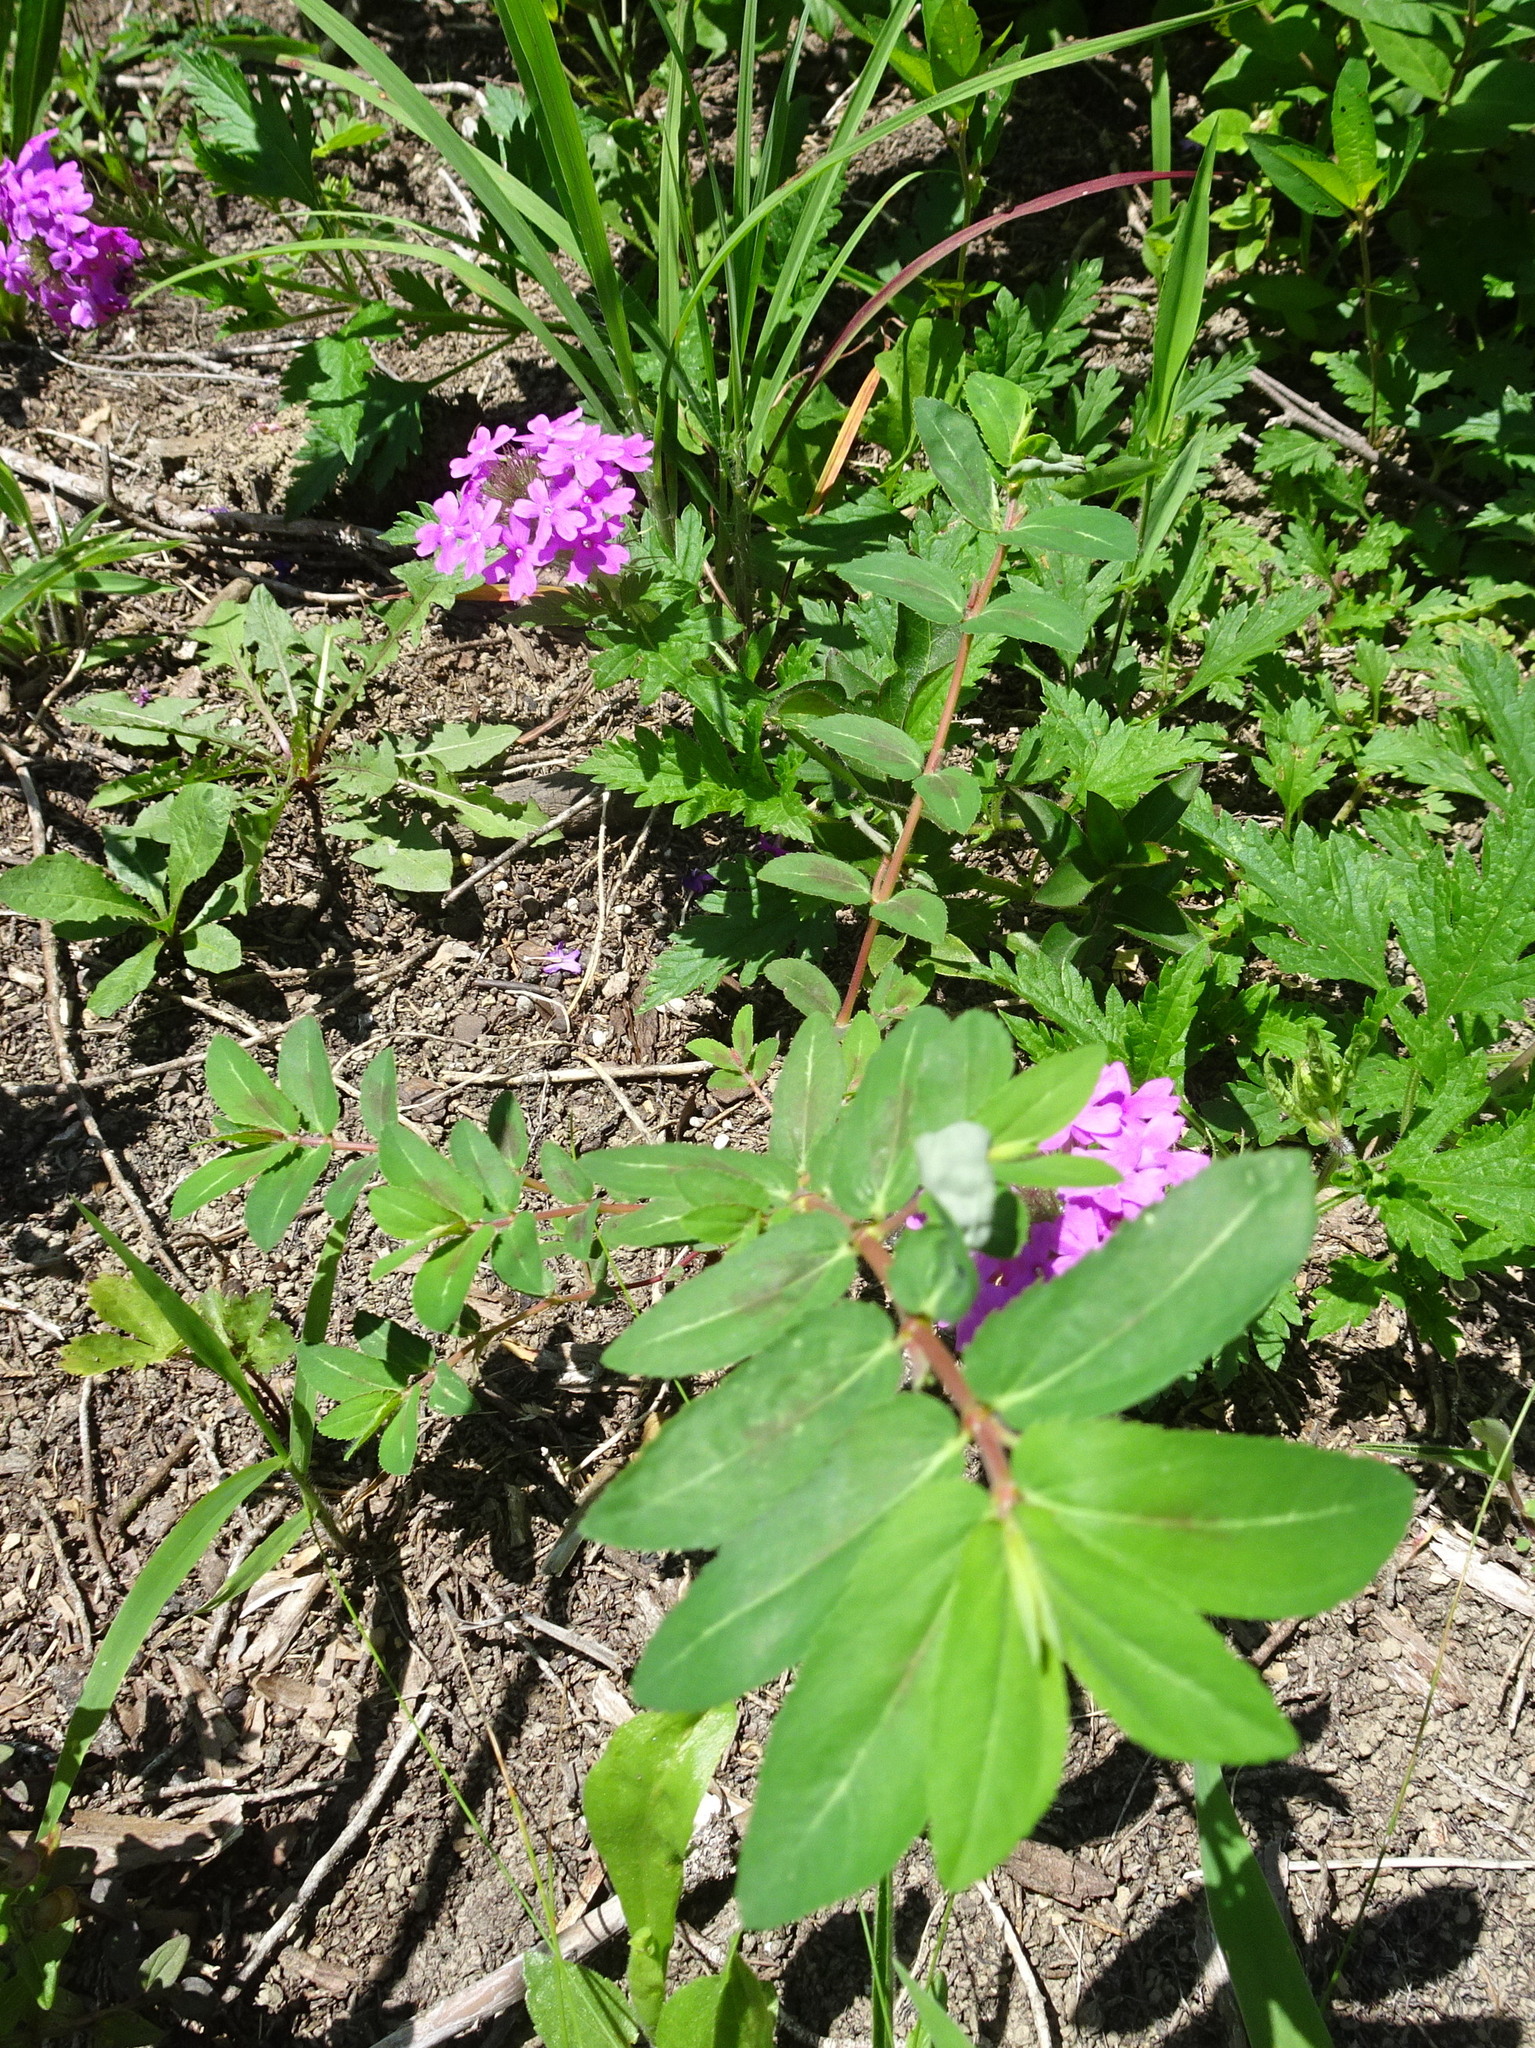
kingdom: Plantae
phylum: Tracheophyta
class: Magnoliopsida
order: Lamiales
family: Verbenaceae
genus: Verbena
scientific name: Verbena canadensis
